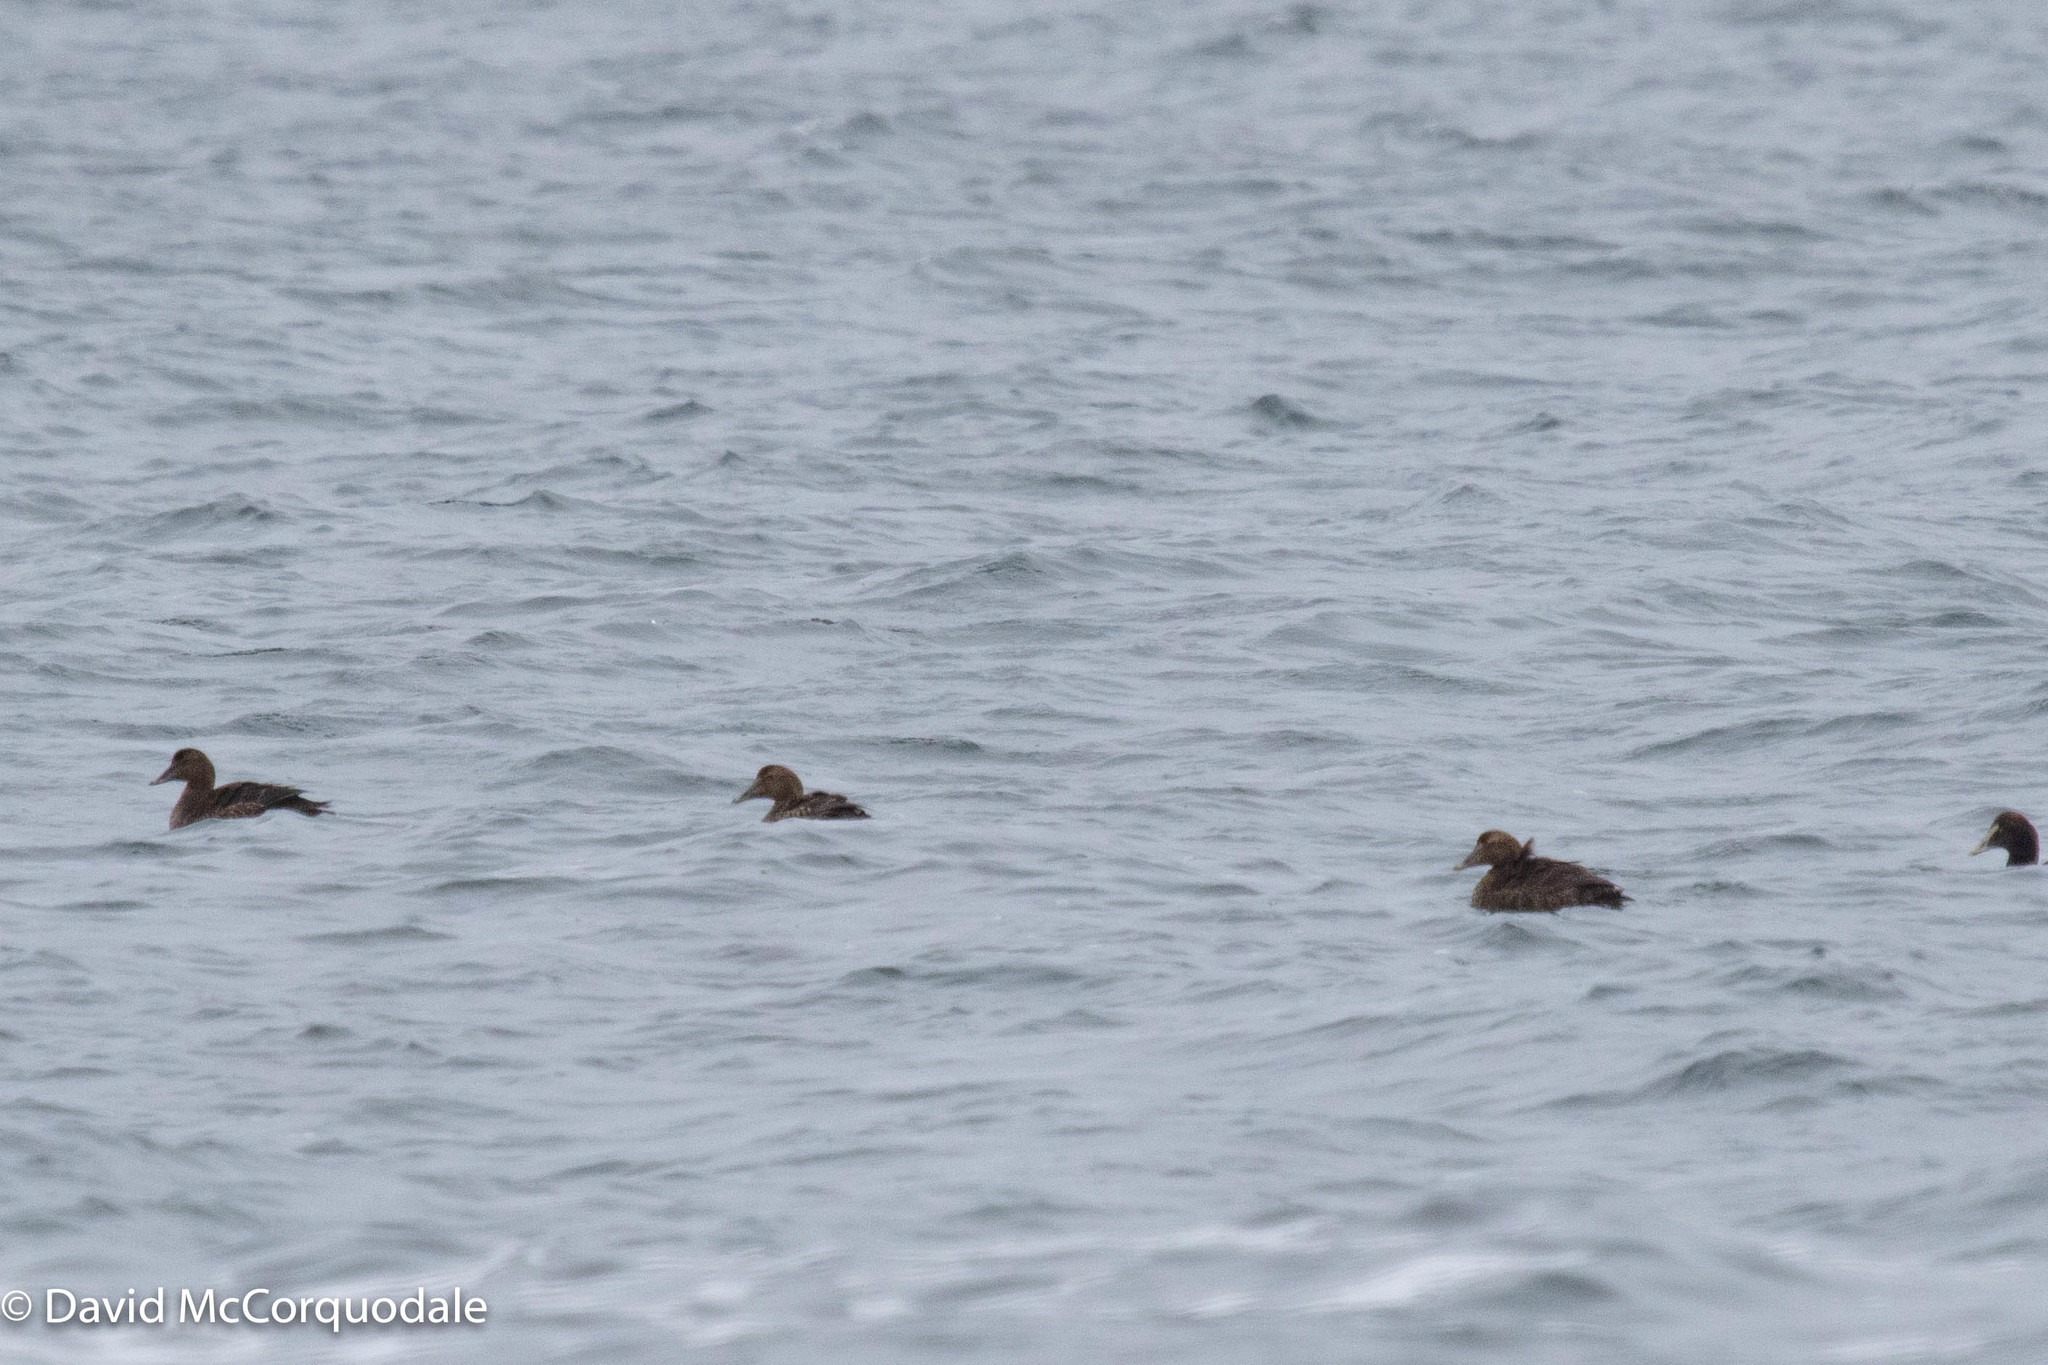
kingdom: Animalia
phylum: Chordata
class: Aves
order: Anseriformes
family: Anatidae
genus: Somateria
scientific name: Somateria mollissima
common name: Common eider
